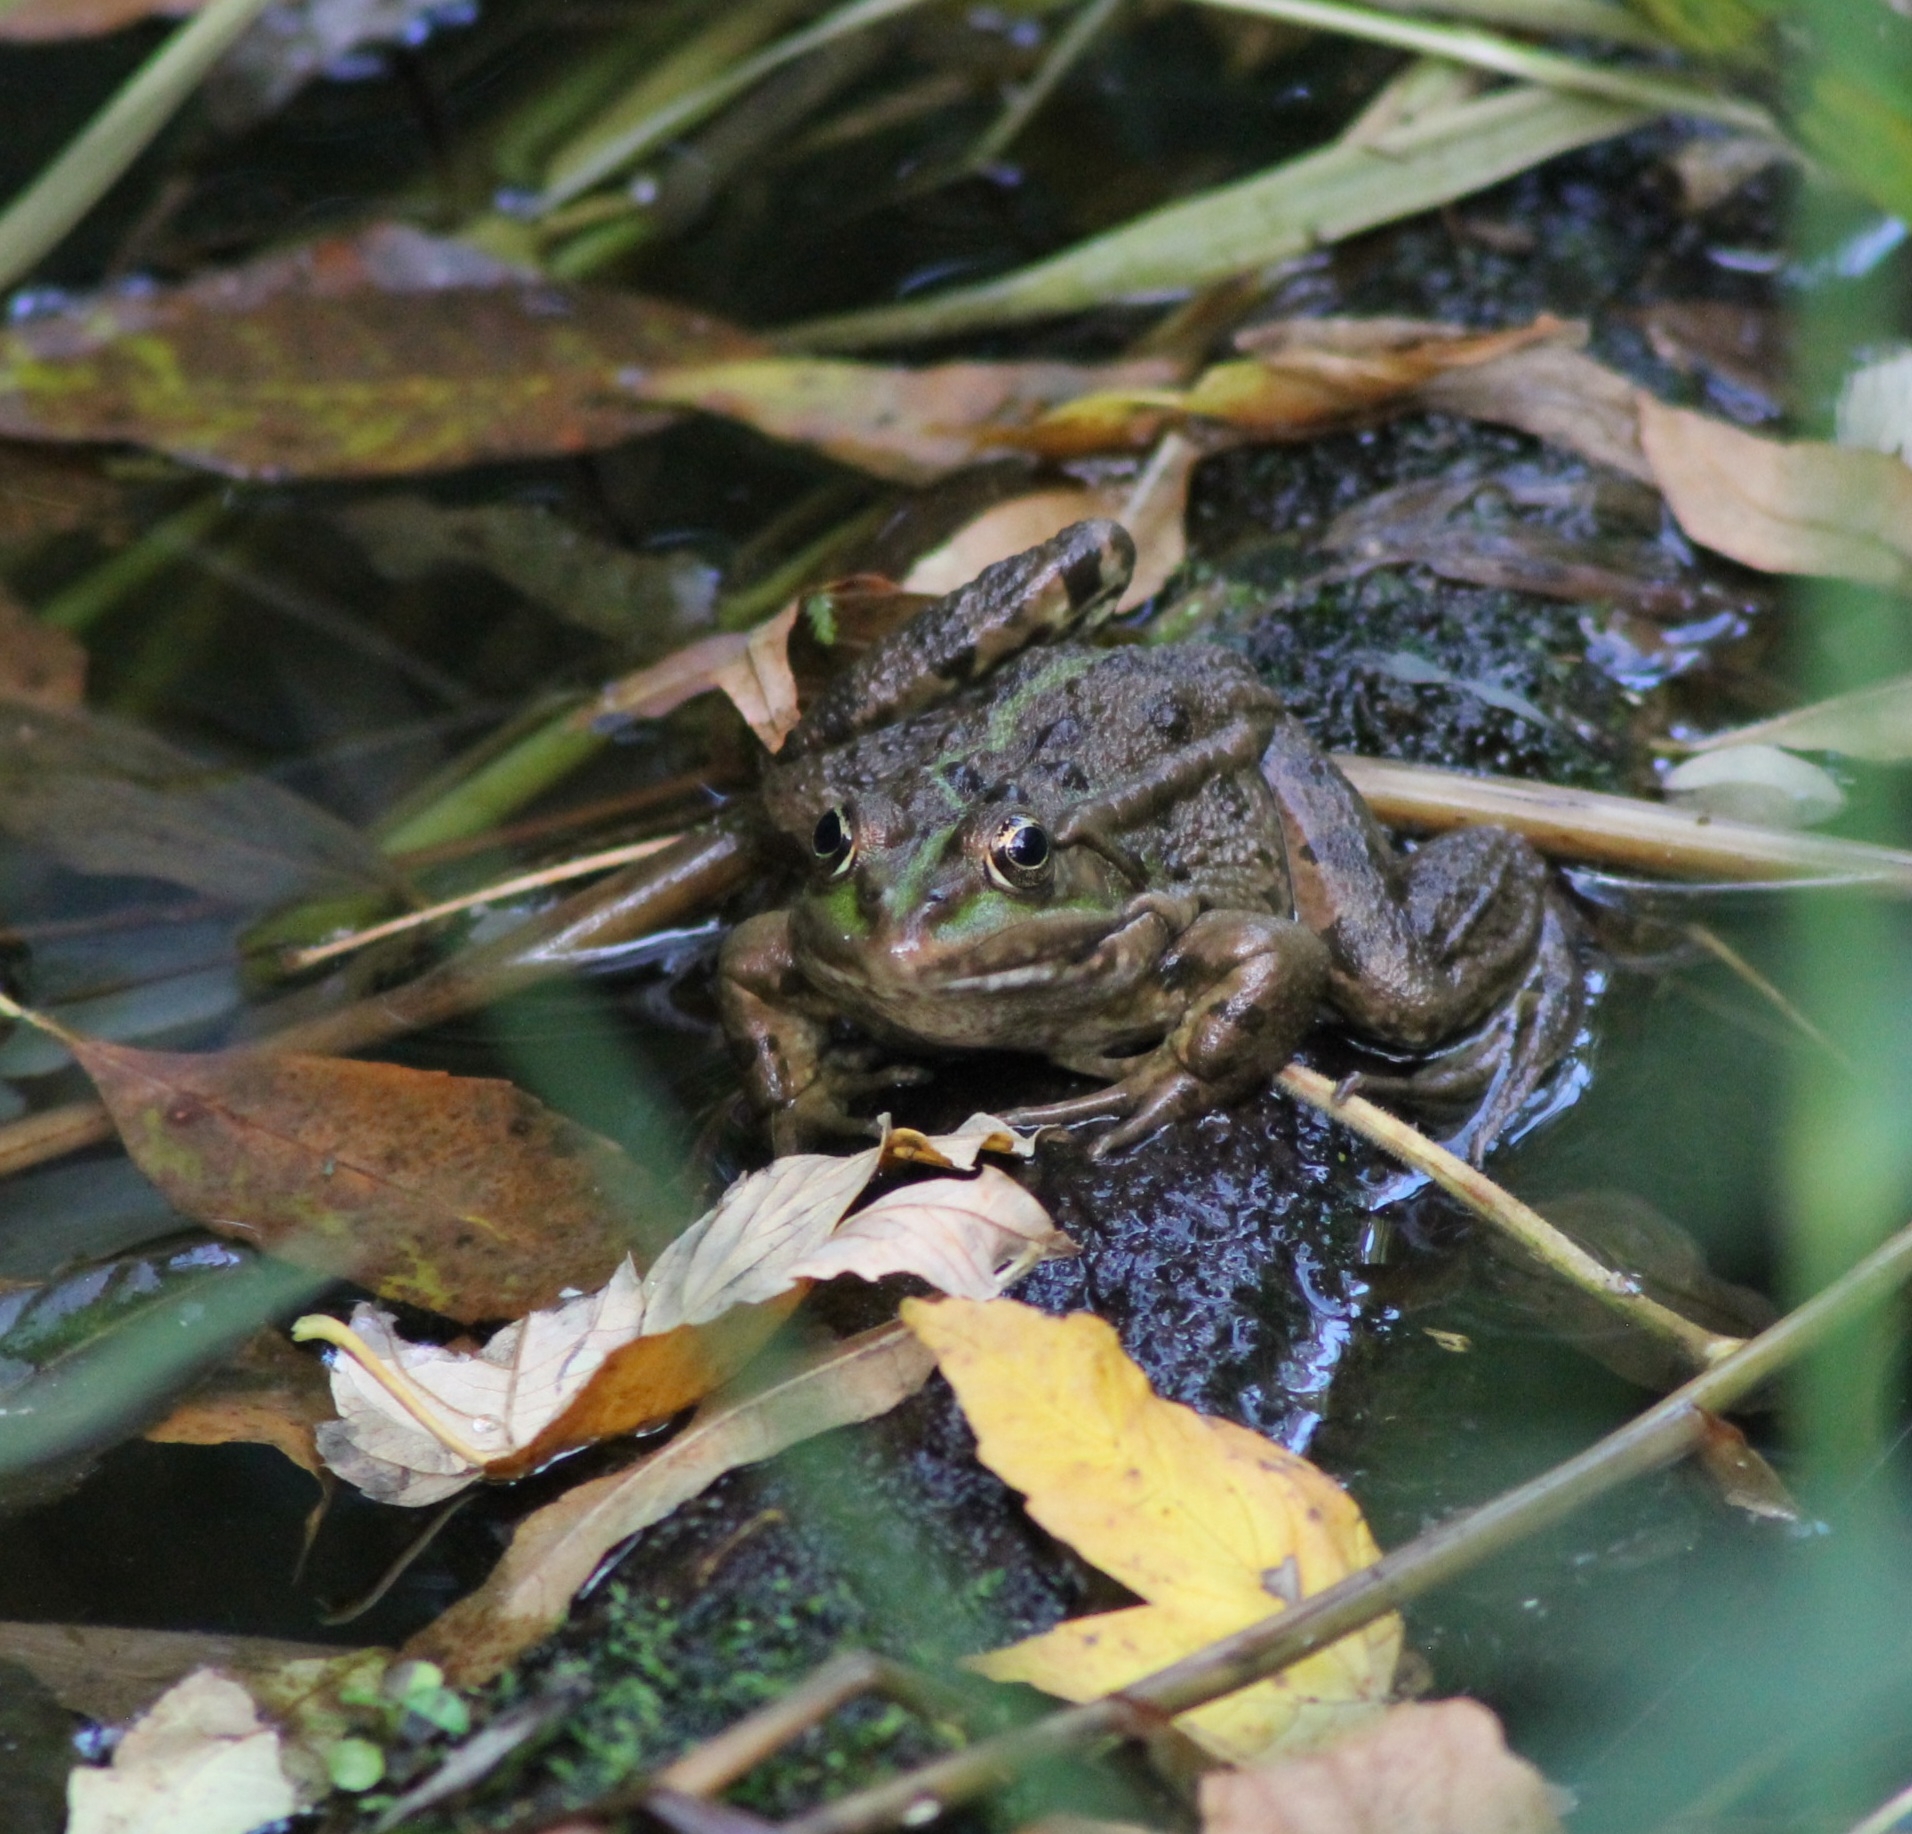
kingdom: Animalia
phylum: Chordata
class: Amphibia
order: Anura
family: Ranidae
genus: Pelophylax
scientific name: Pelophylax
